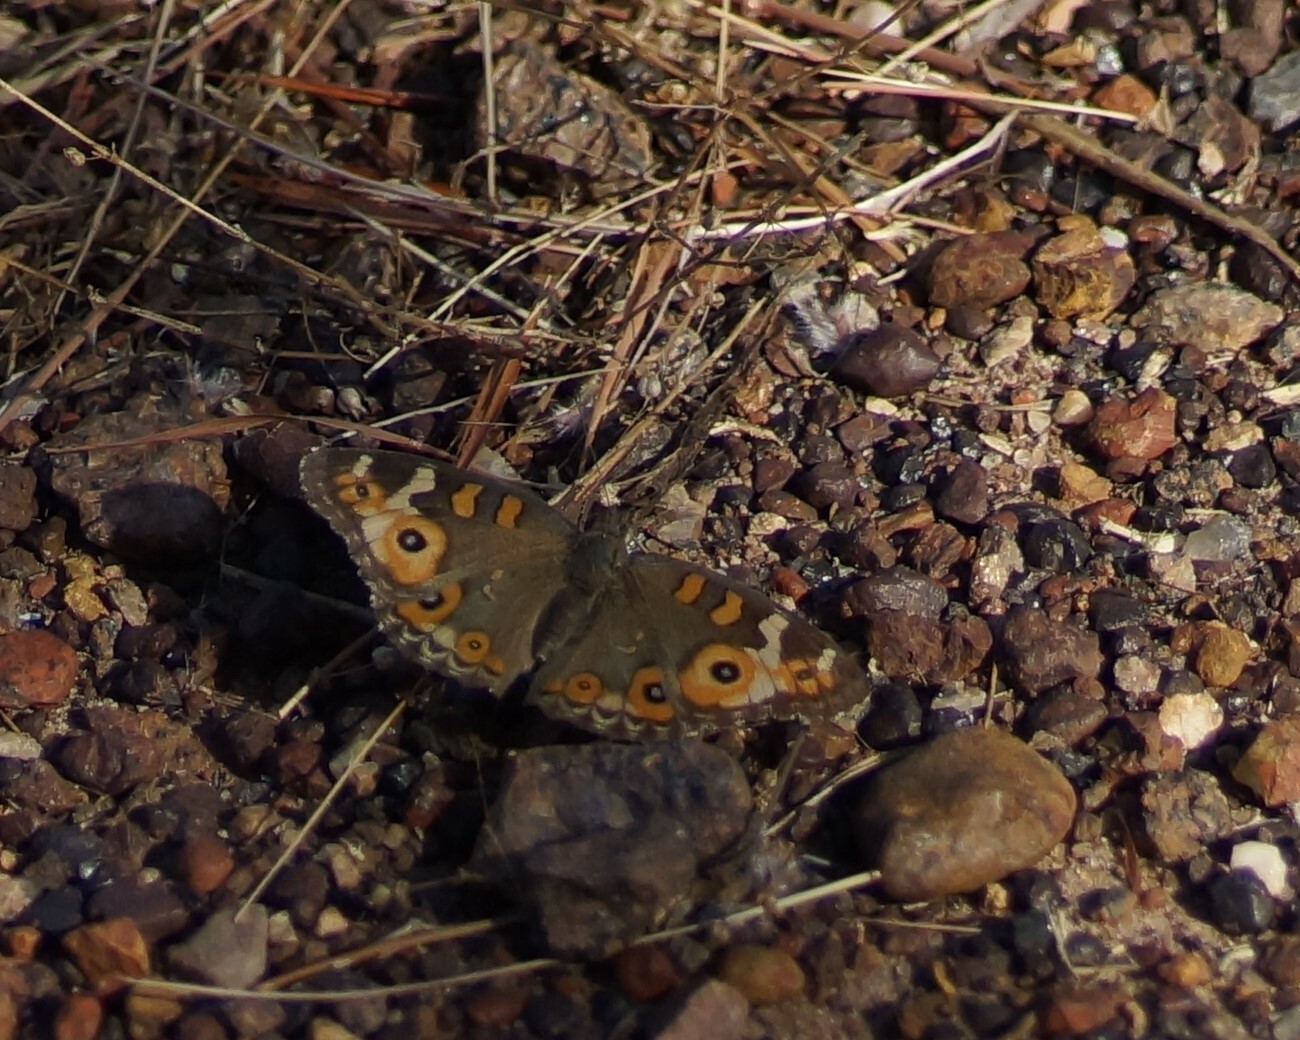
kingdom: Animalia
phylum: Arthropoda
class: Insecta
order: Lepidoptera
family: Nymphalidae
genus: Junonia
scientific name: Junonia villida
